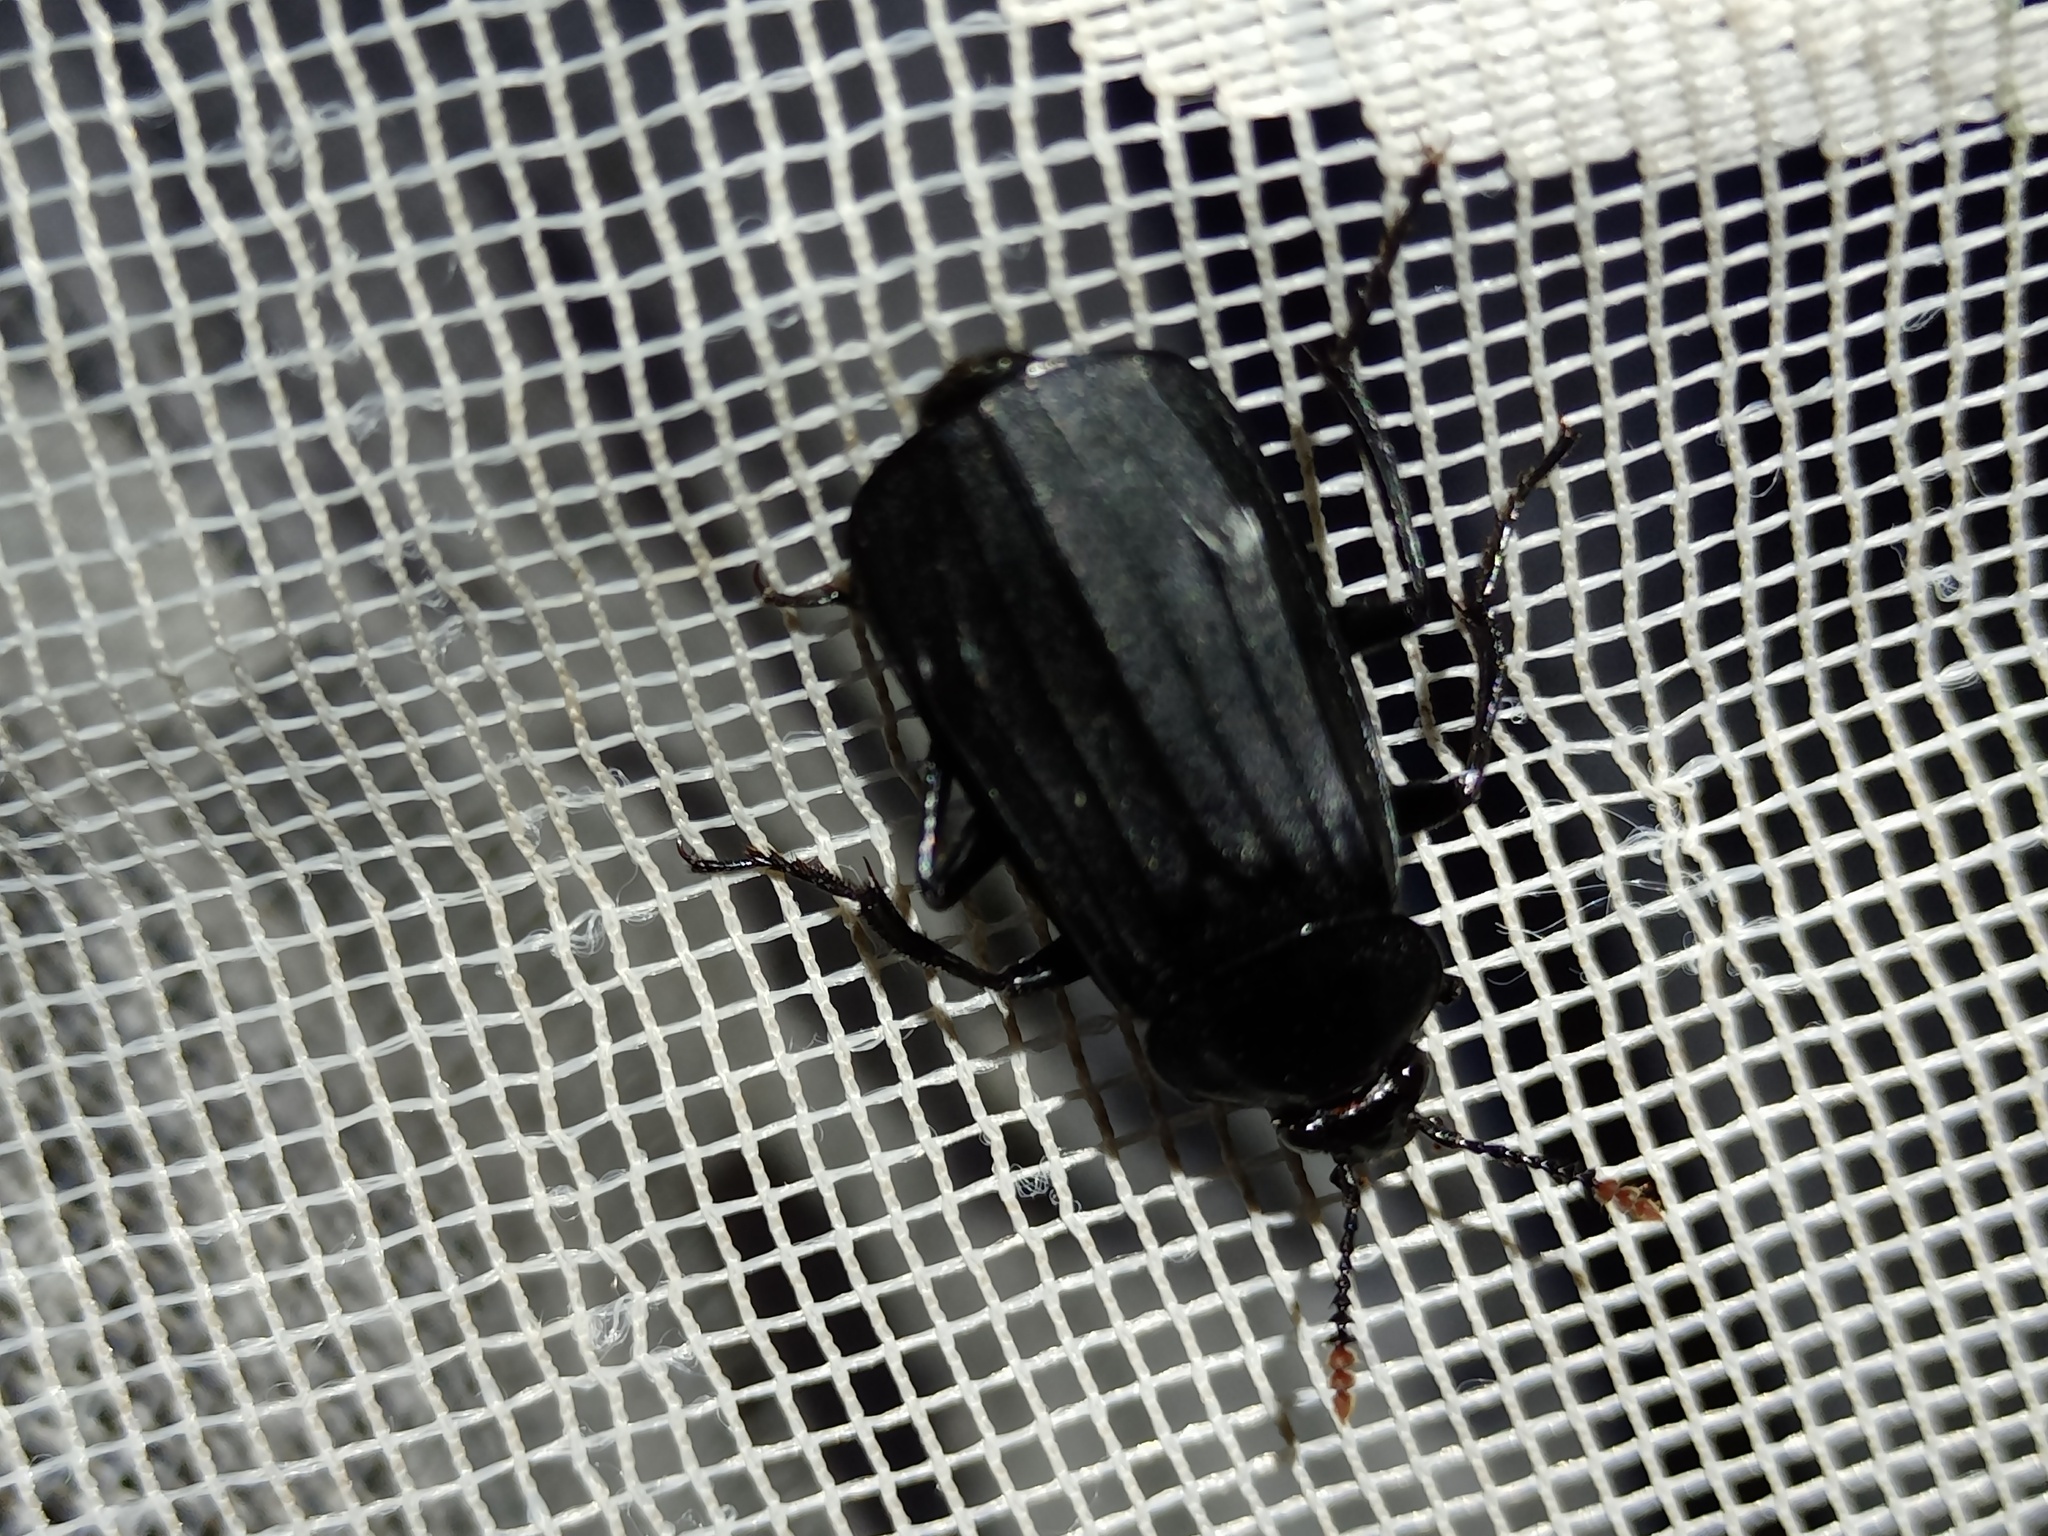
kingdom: Animalia
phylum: Arthropoda
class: Insecta
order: Coleoptera
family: Staphylinidae
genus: Necrodes
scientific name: Necrodes littoralis
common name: Shore sexton beetle
